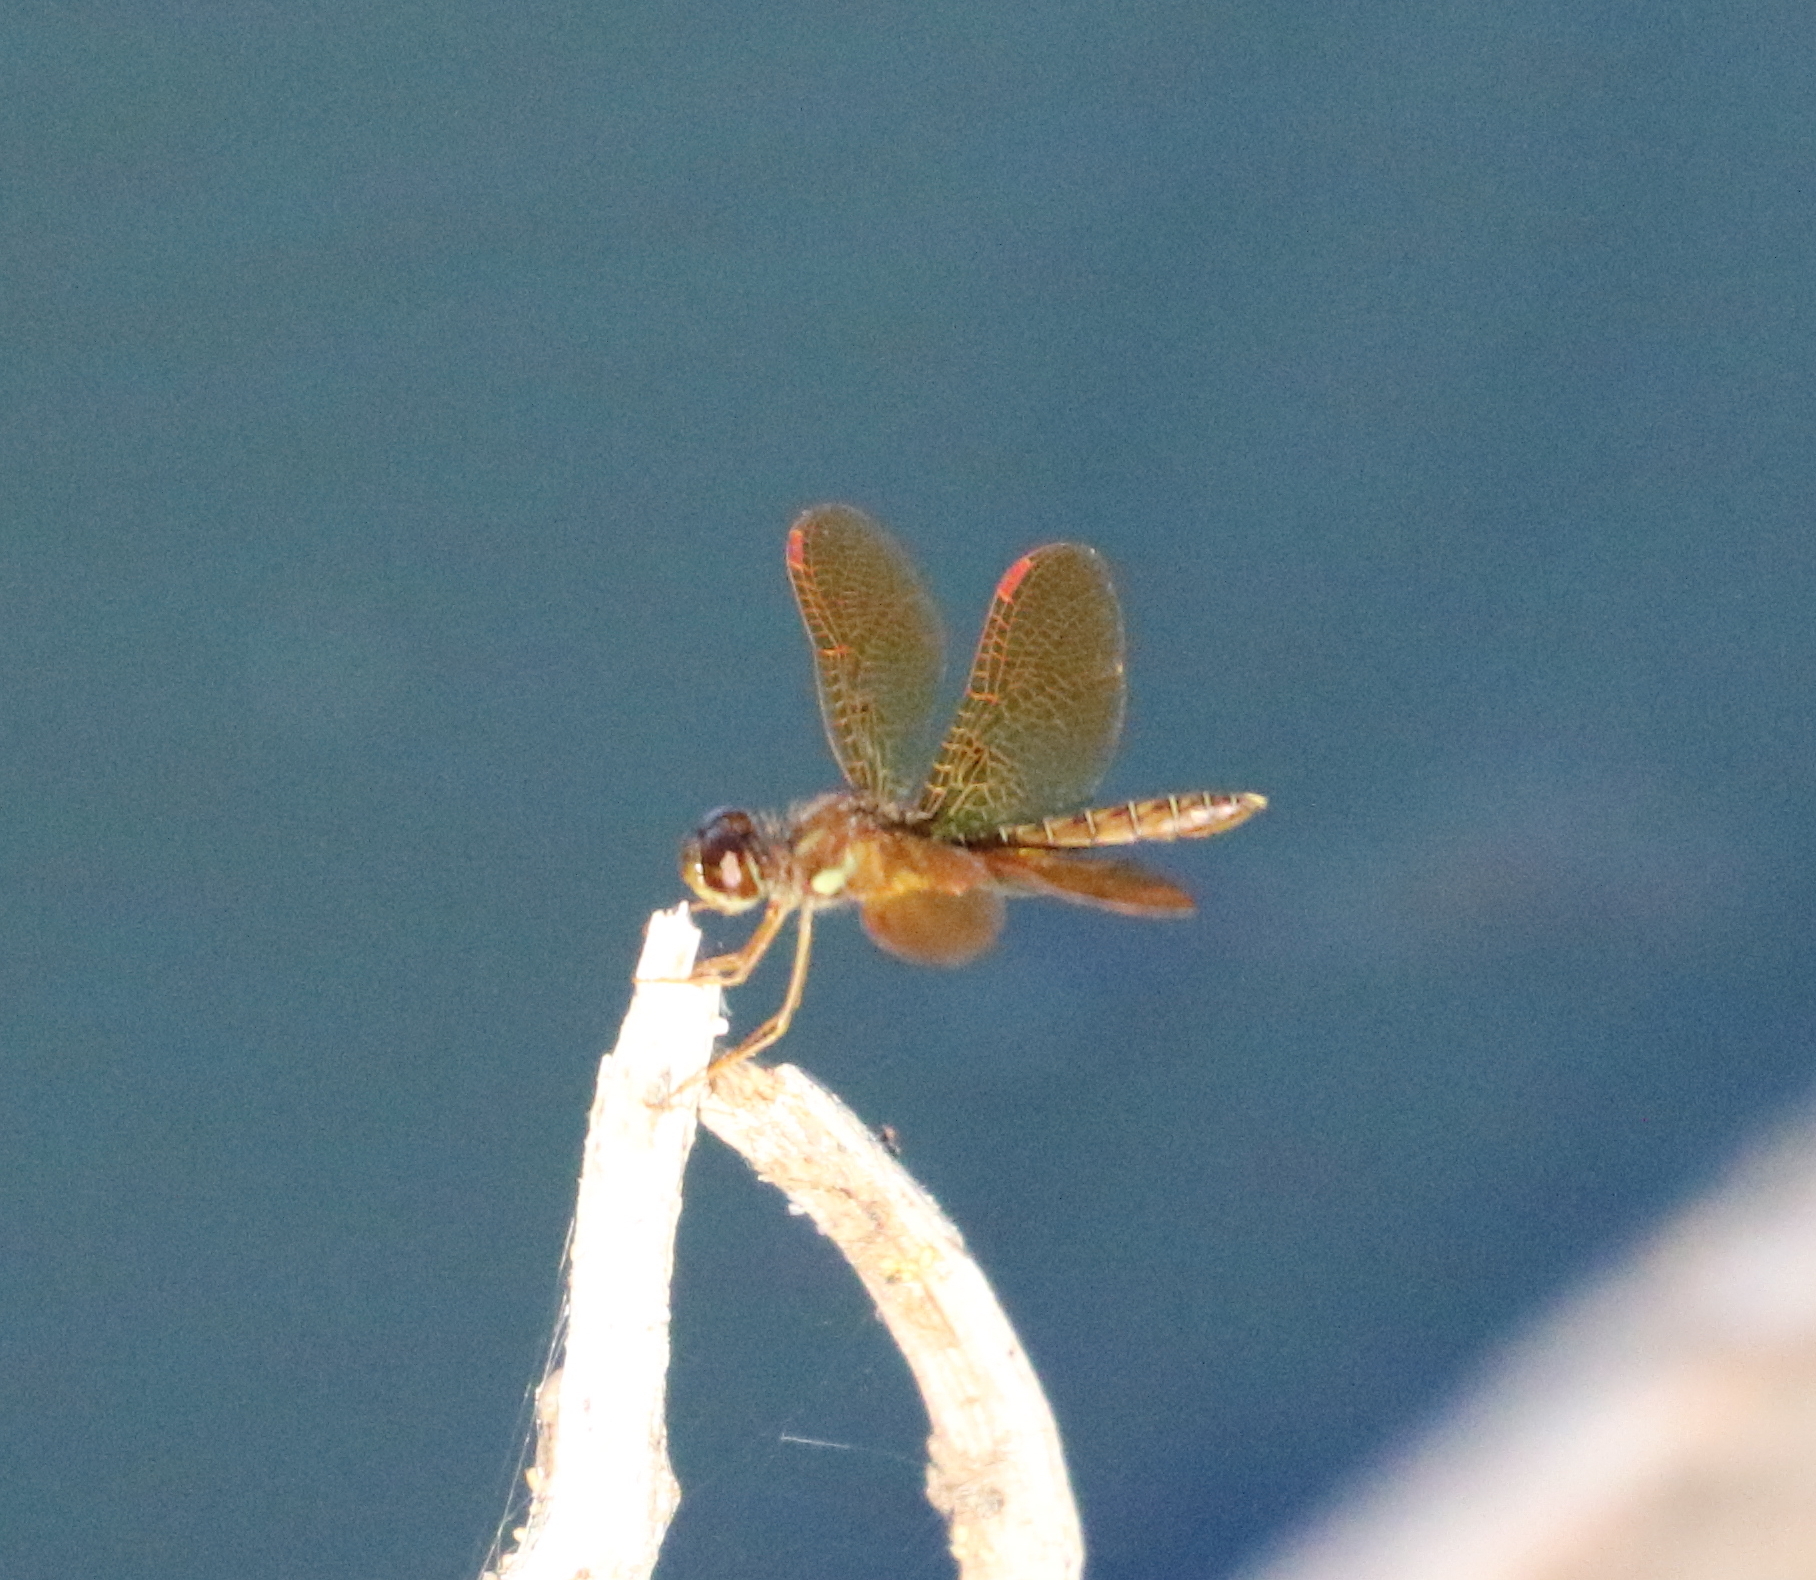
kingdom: Animalia
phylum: Arthropoda
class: Insecta
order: Odonata
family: Libellulidae
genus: Perithemis
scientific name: Perithemis tenera
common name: Eastern amberwing
